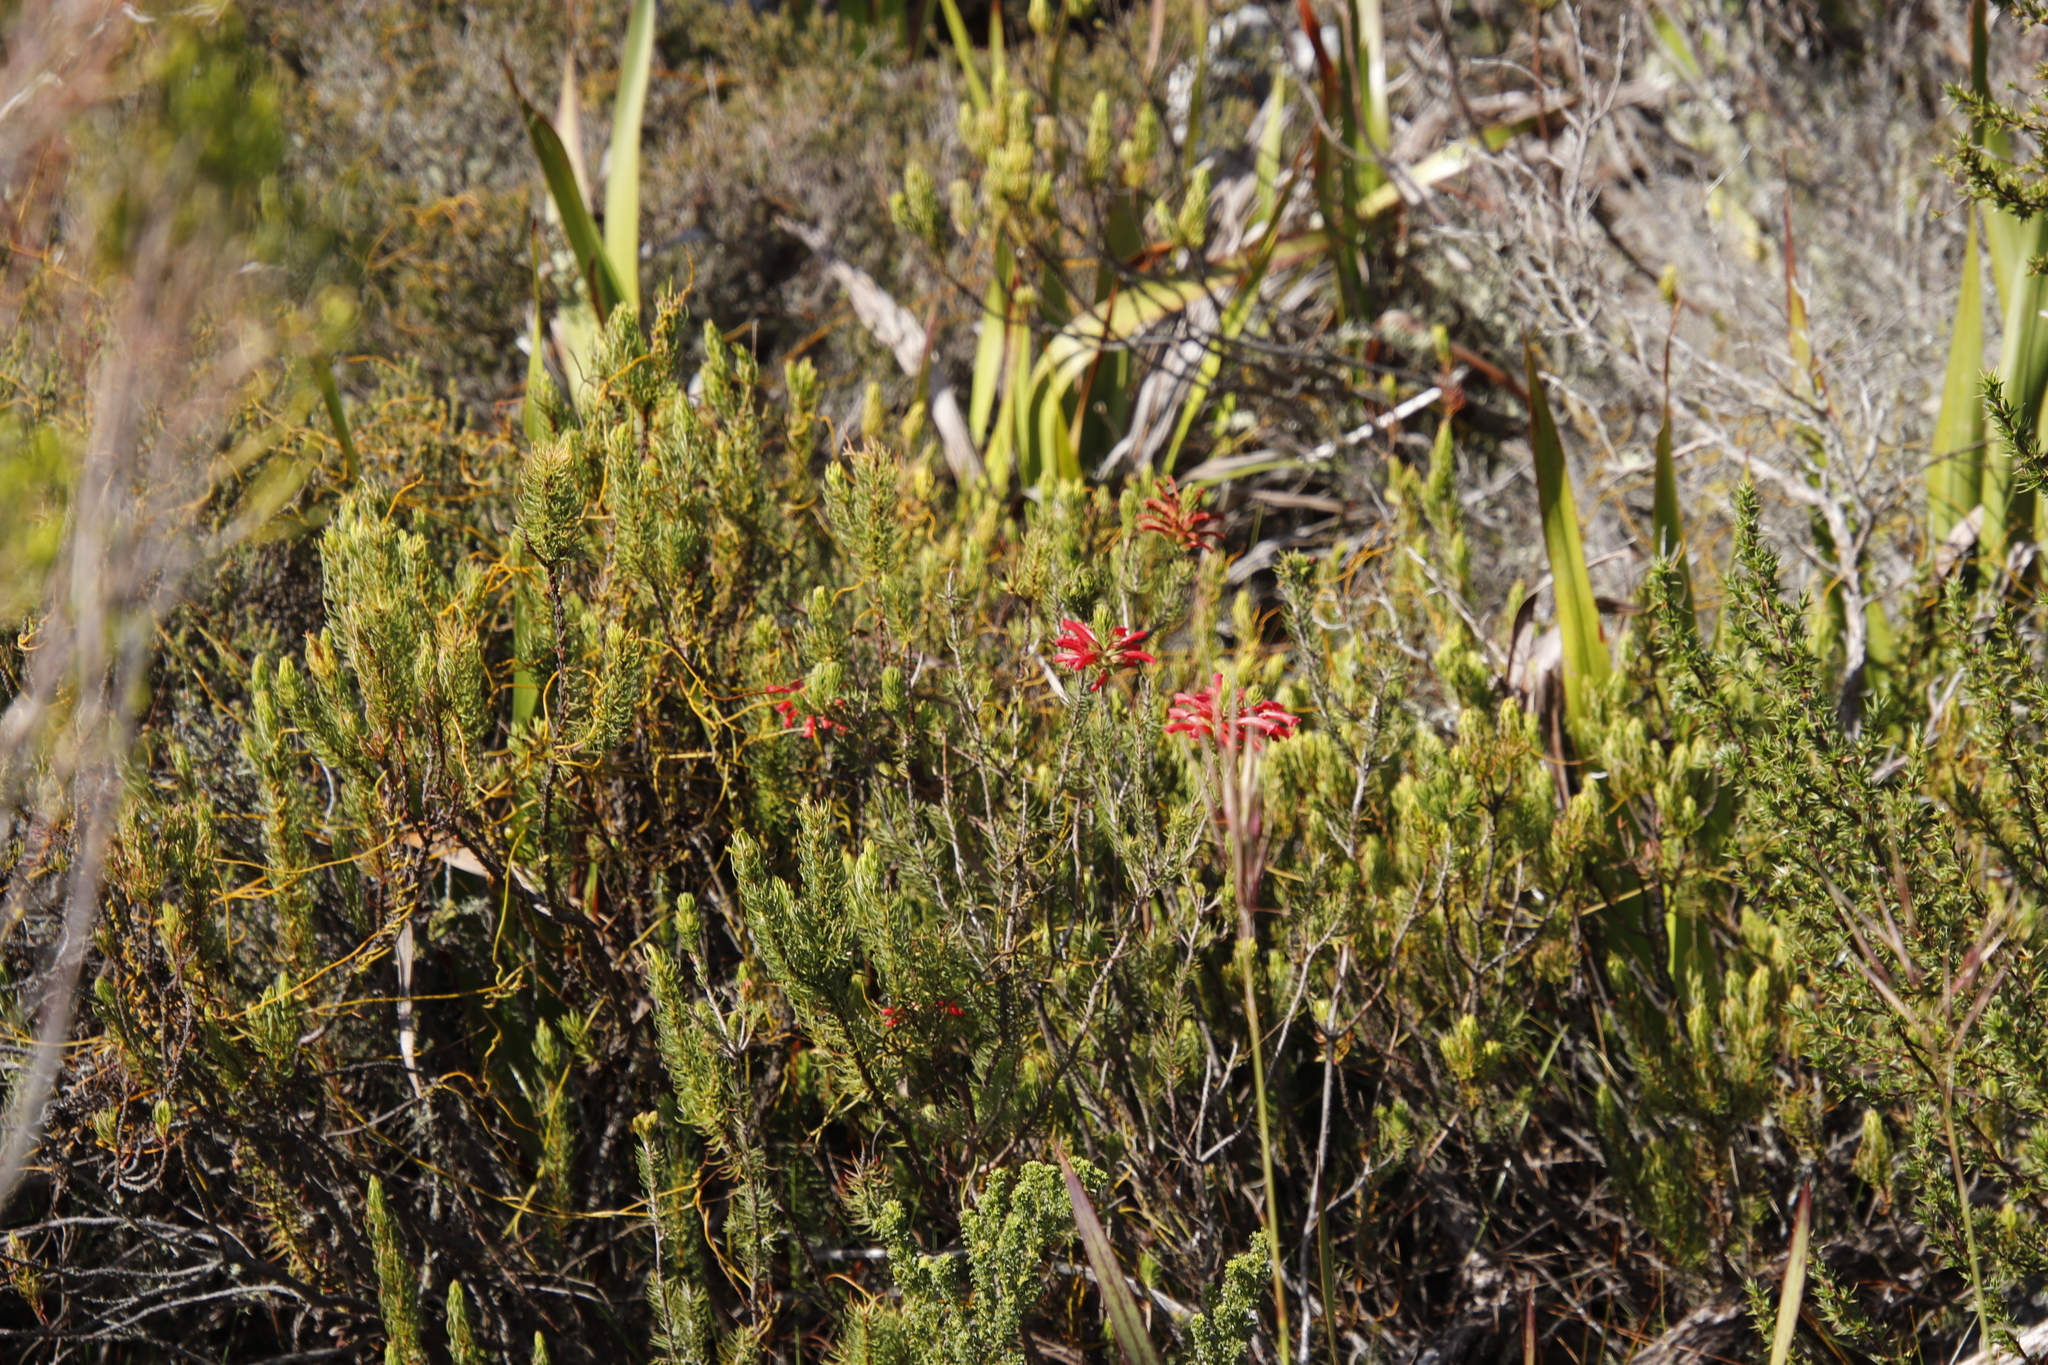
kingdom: Plantae
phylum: Tracheophyta
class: Magnoliopsida
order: Ericales
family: Ericaceae
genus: Erica
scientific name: Erica abietina
